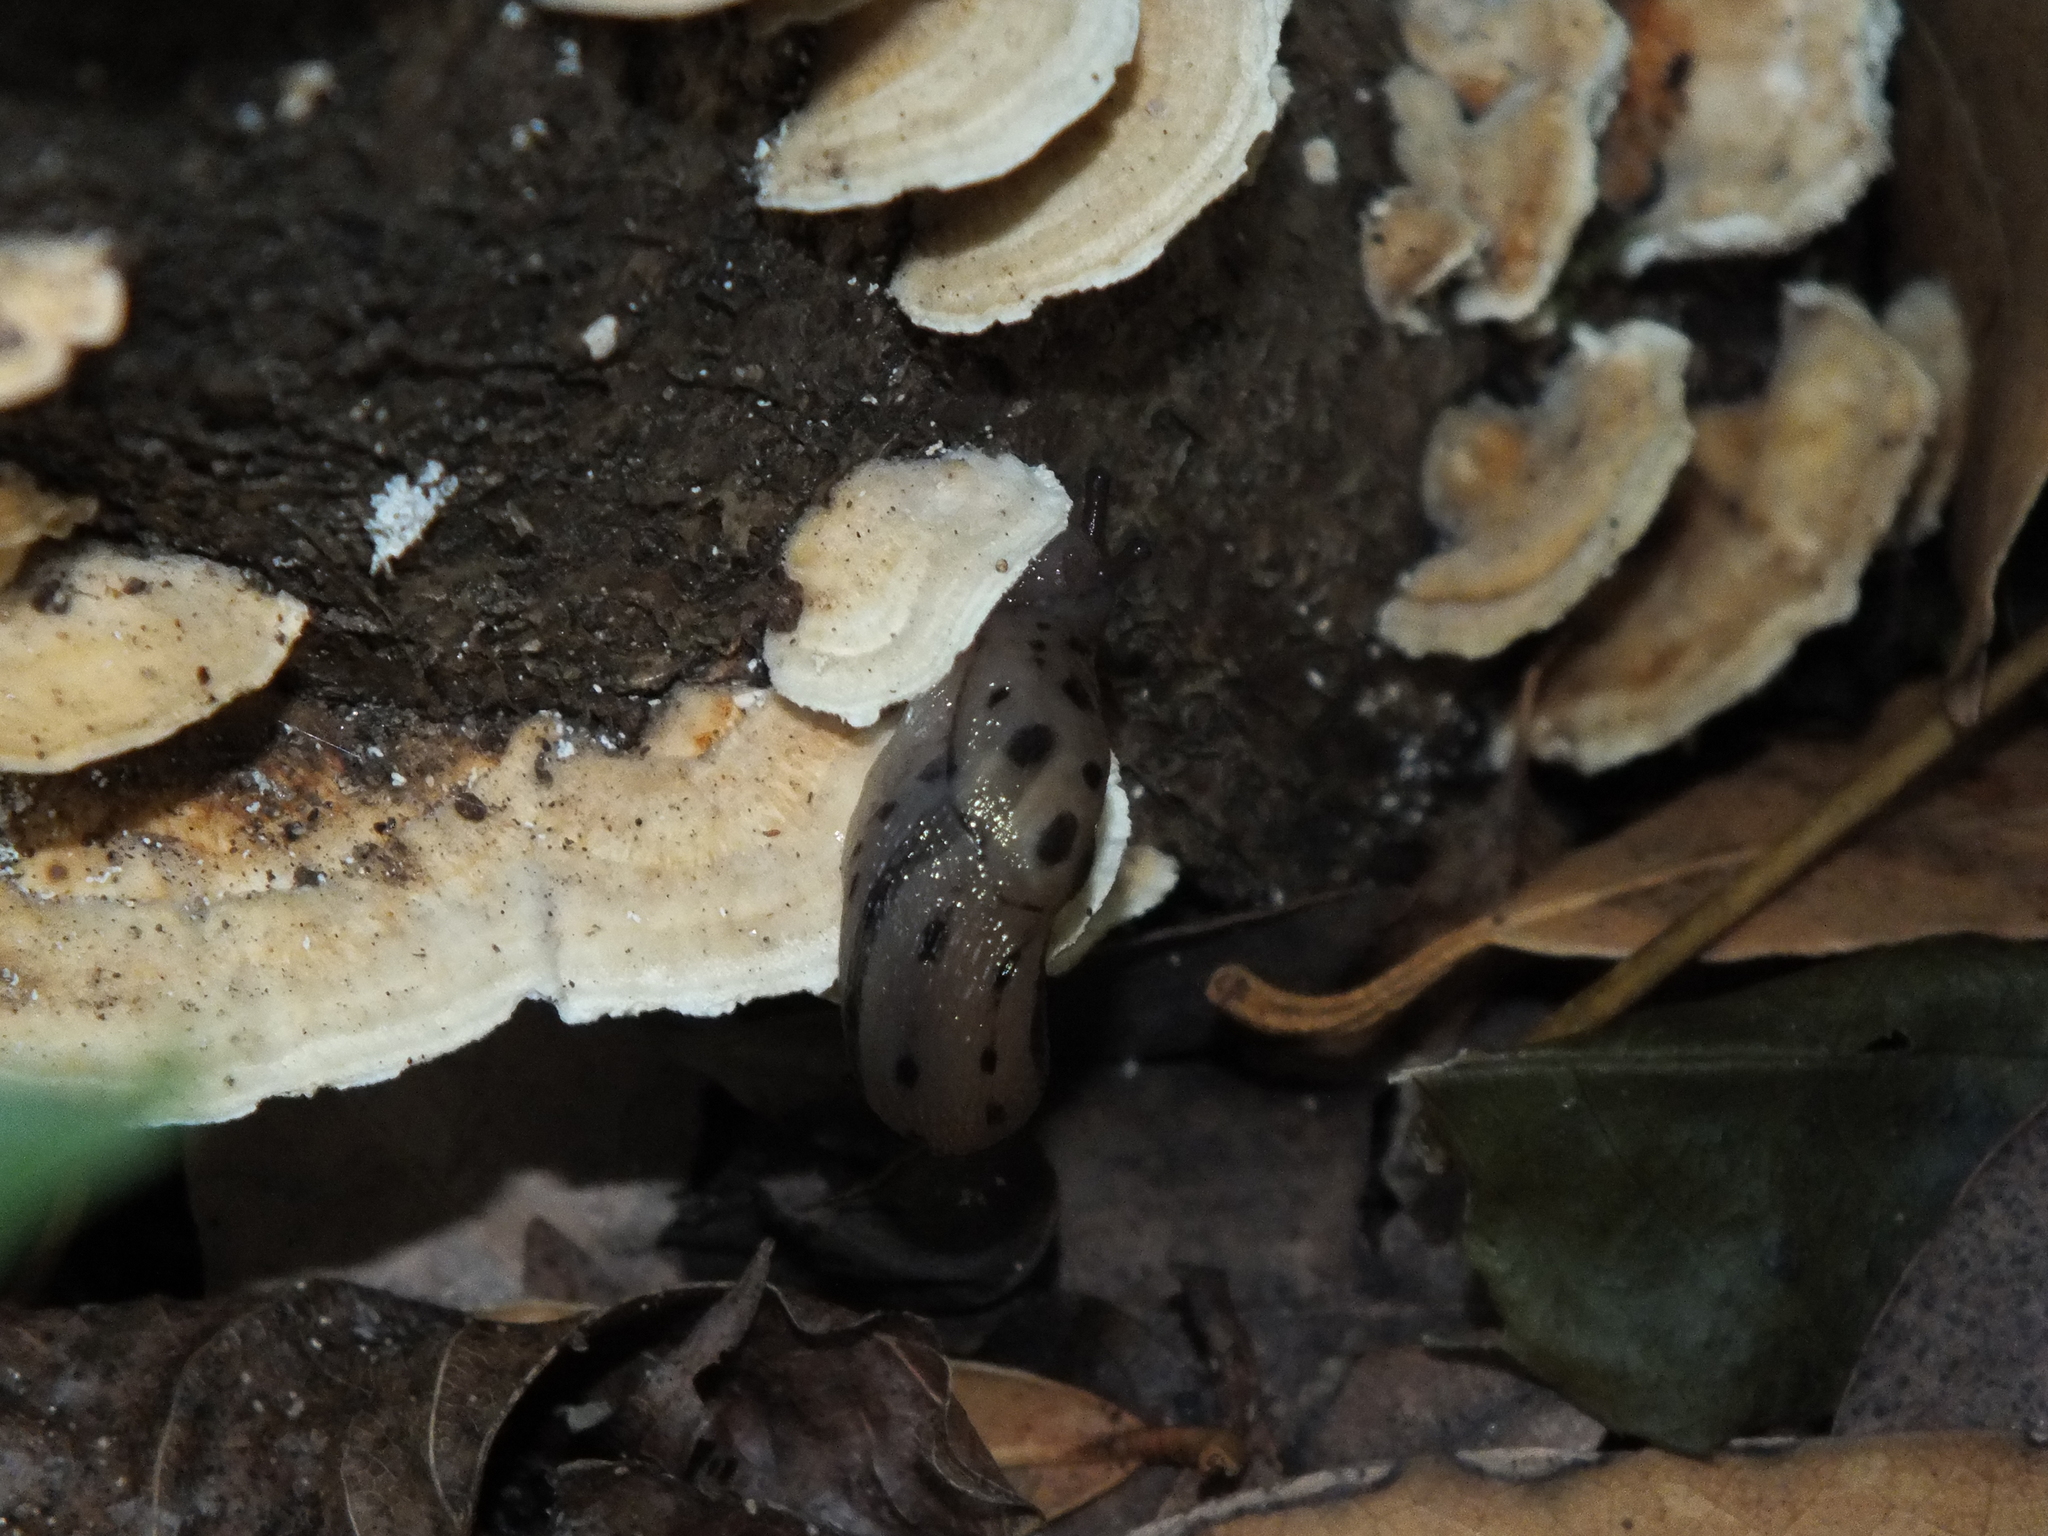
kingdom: Animalia
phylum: Mollusca
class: Gastropoda
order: Stylommatophora
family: Limacidae
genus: Limax
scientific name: Limax maximus
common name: Great grey slug
